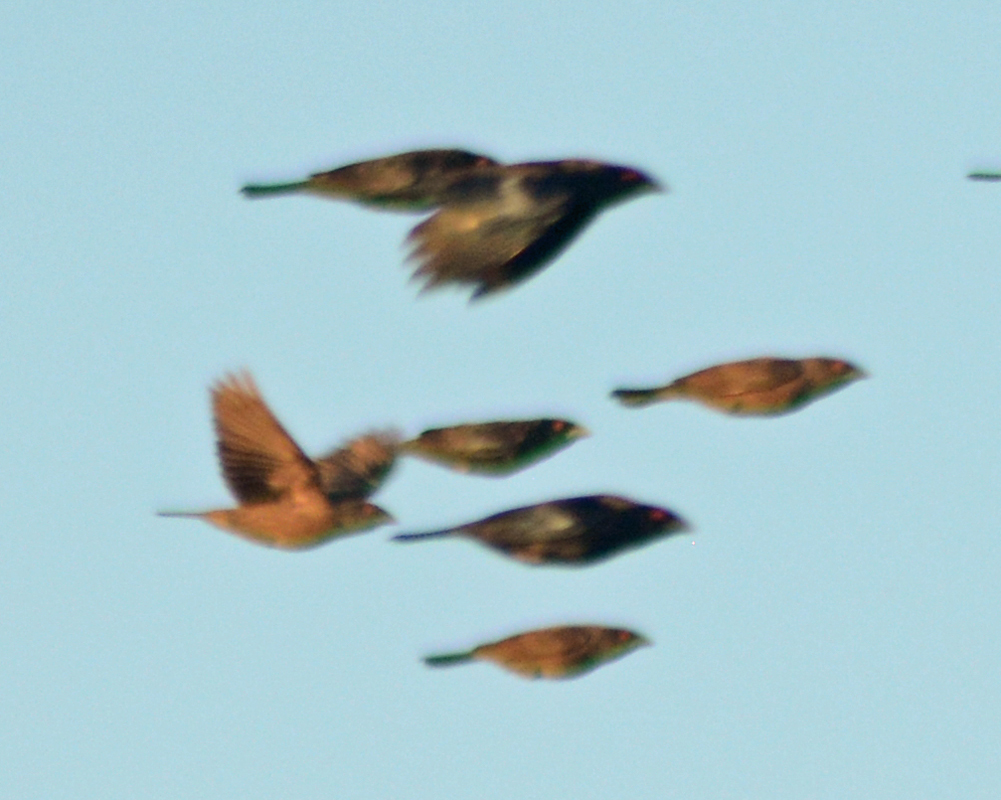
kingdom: Animalia
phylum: Chordata
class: Aves
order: Passeriformes
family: Icteridae
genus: Molothrus
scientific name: Molothrus aeneus
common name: Bronzed cowbird
